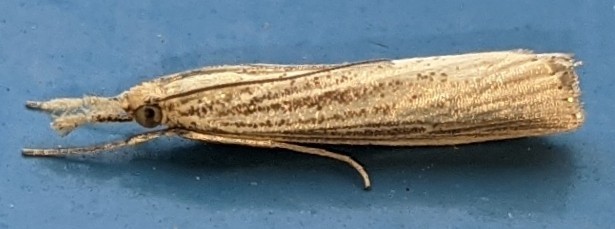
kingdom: Animalia
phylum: Arthropoda
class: Insecta
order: Lepidoptera
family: Crambidae
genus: Agriphila
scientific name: Agriphila vulgivagellus
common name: Vagabond crambus moth
